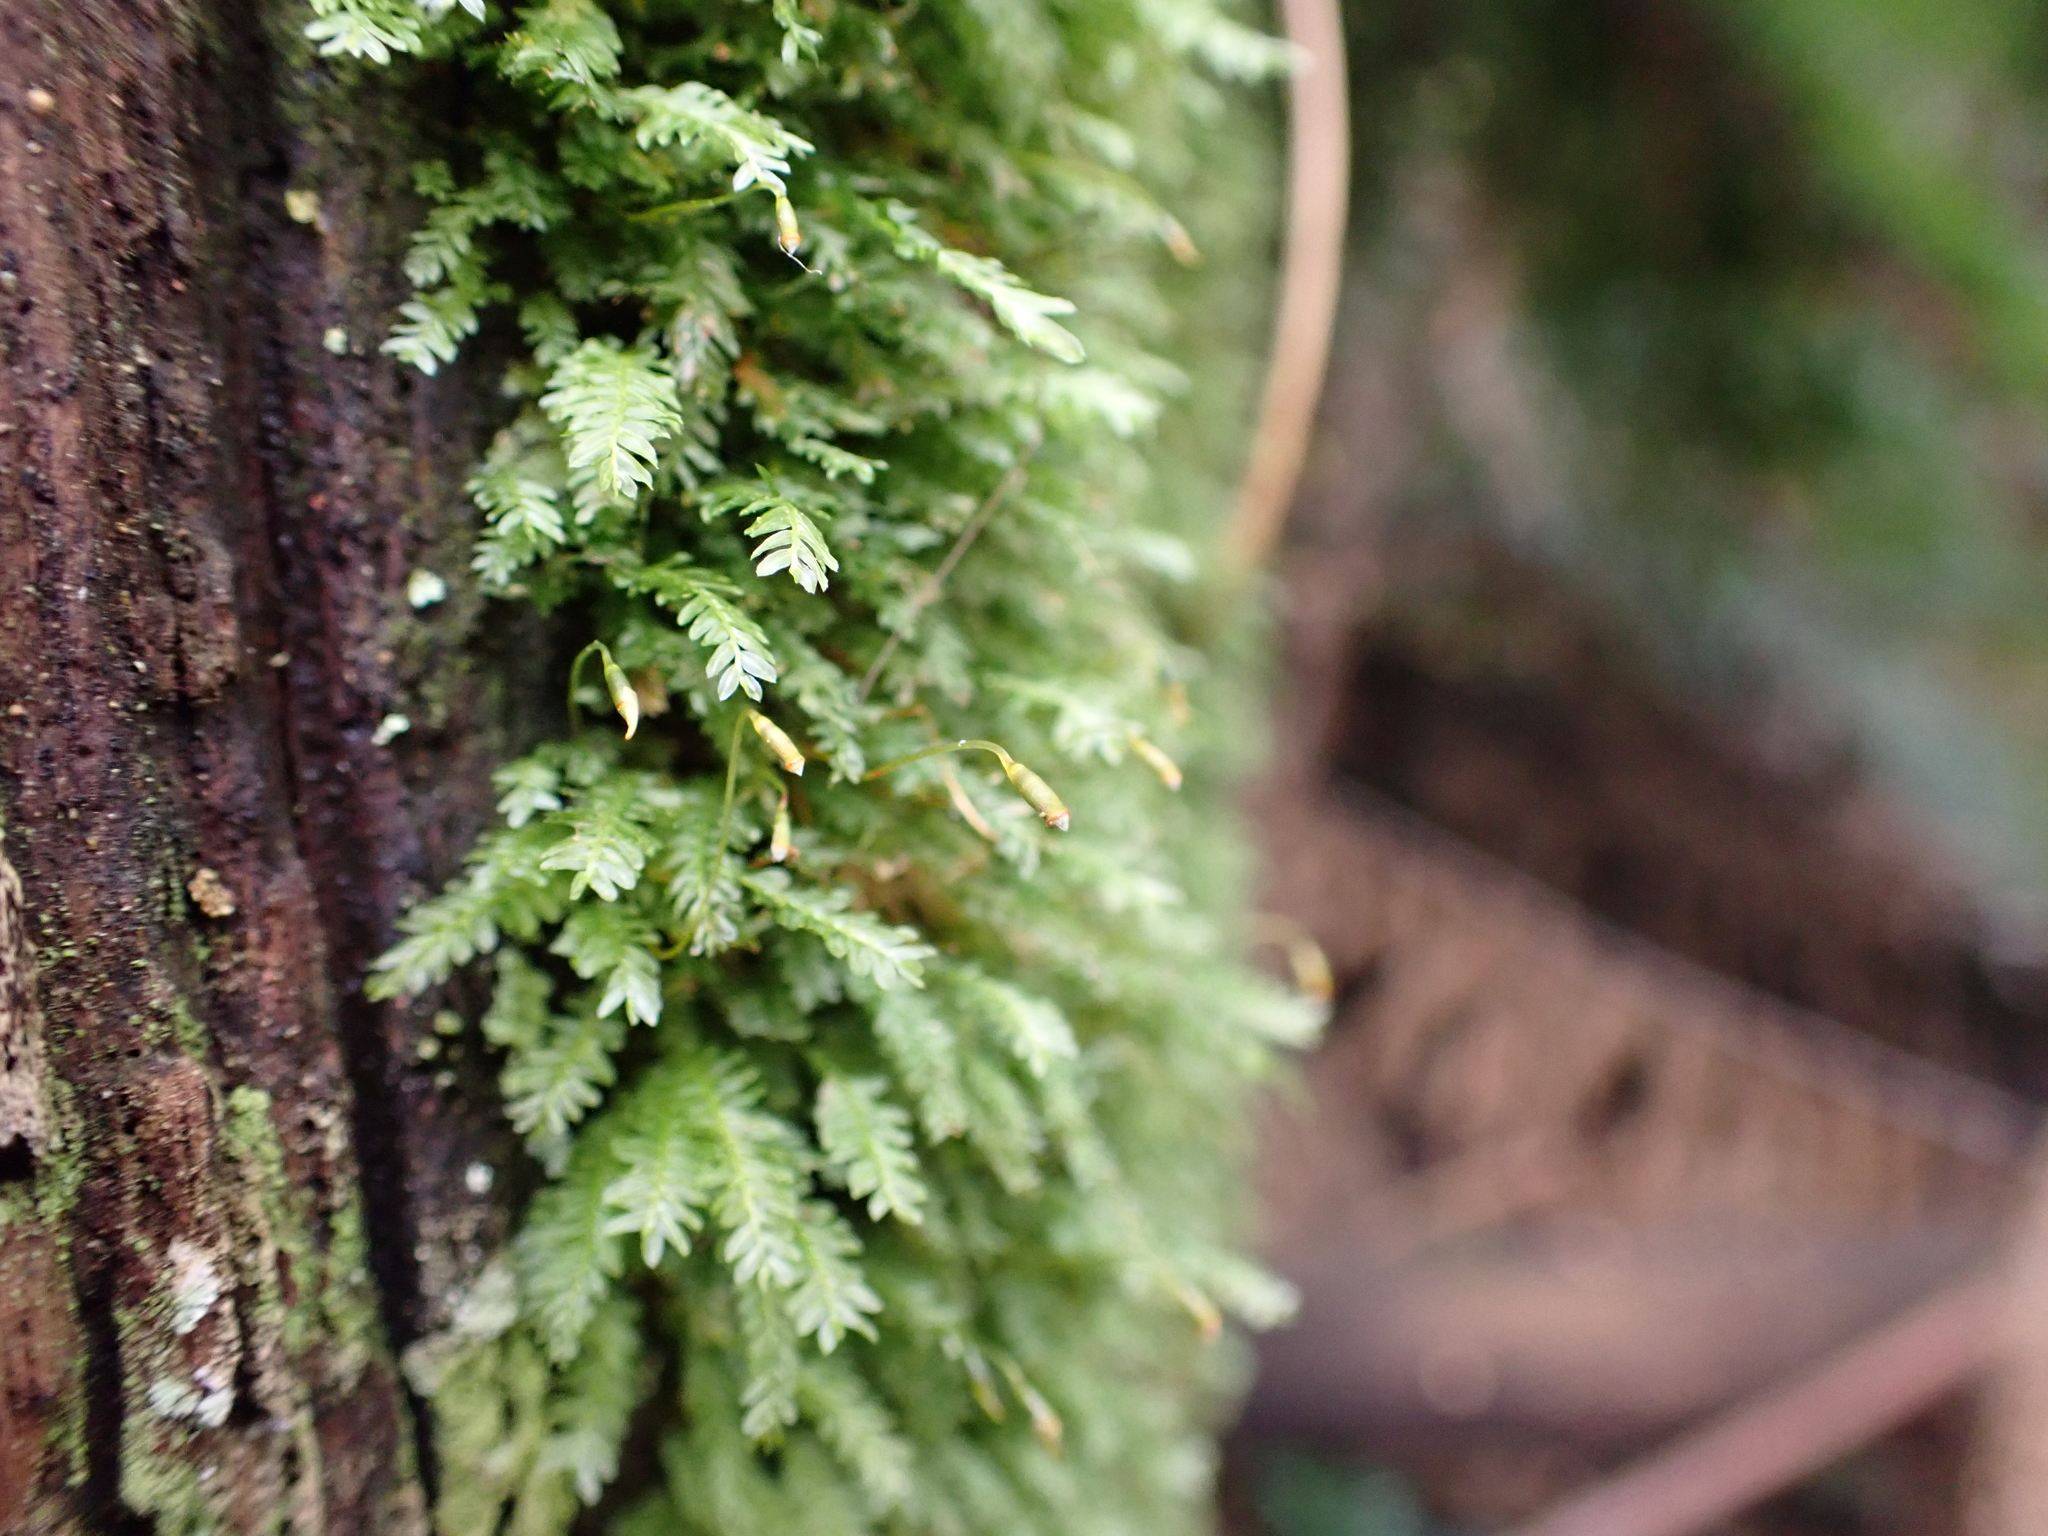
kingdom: Plantae
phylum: Bryophyta
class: Bryopsida
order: Rhizogoniales
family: Rhizogoniaceae
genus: Rhizogonium
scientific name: Rhizogonium distichum
